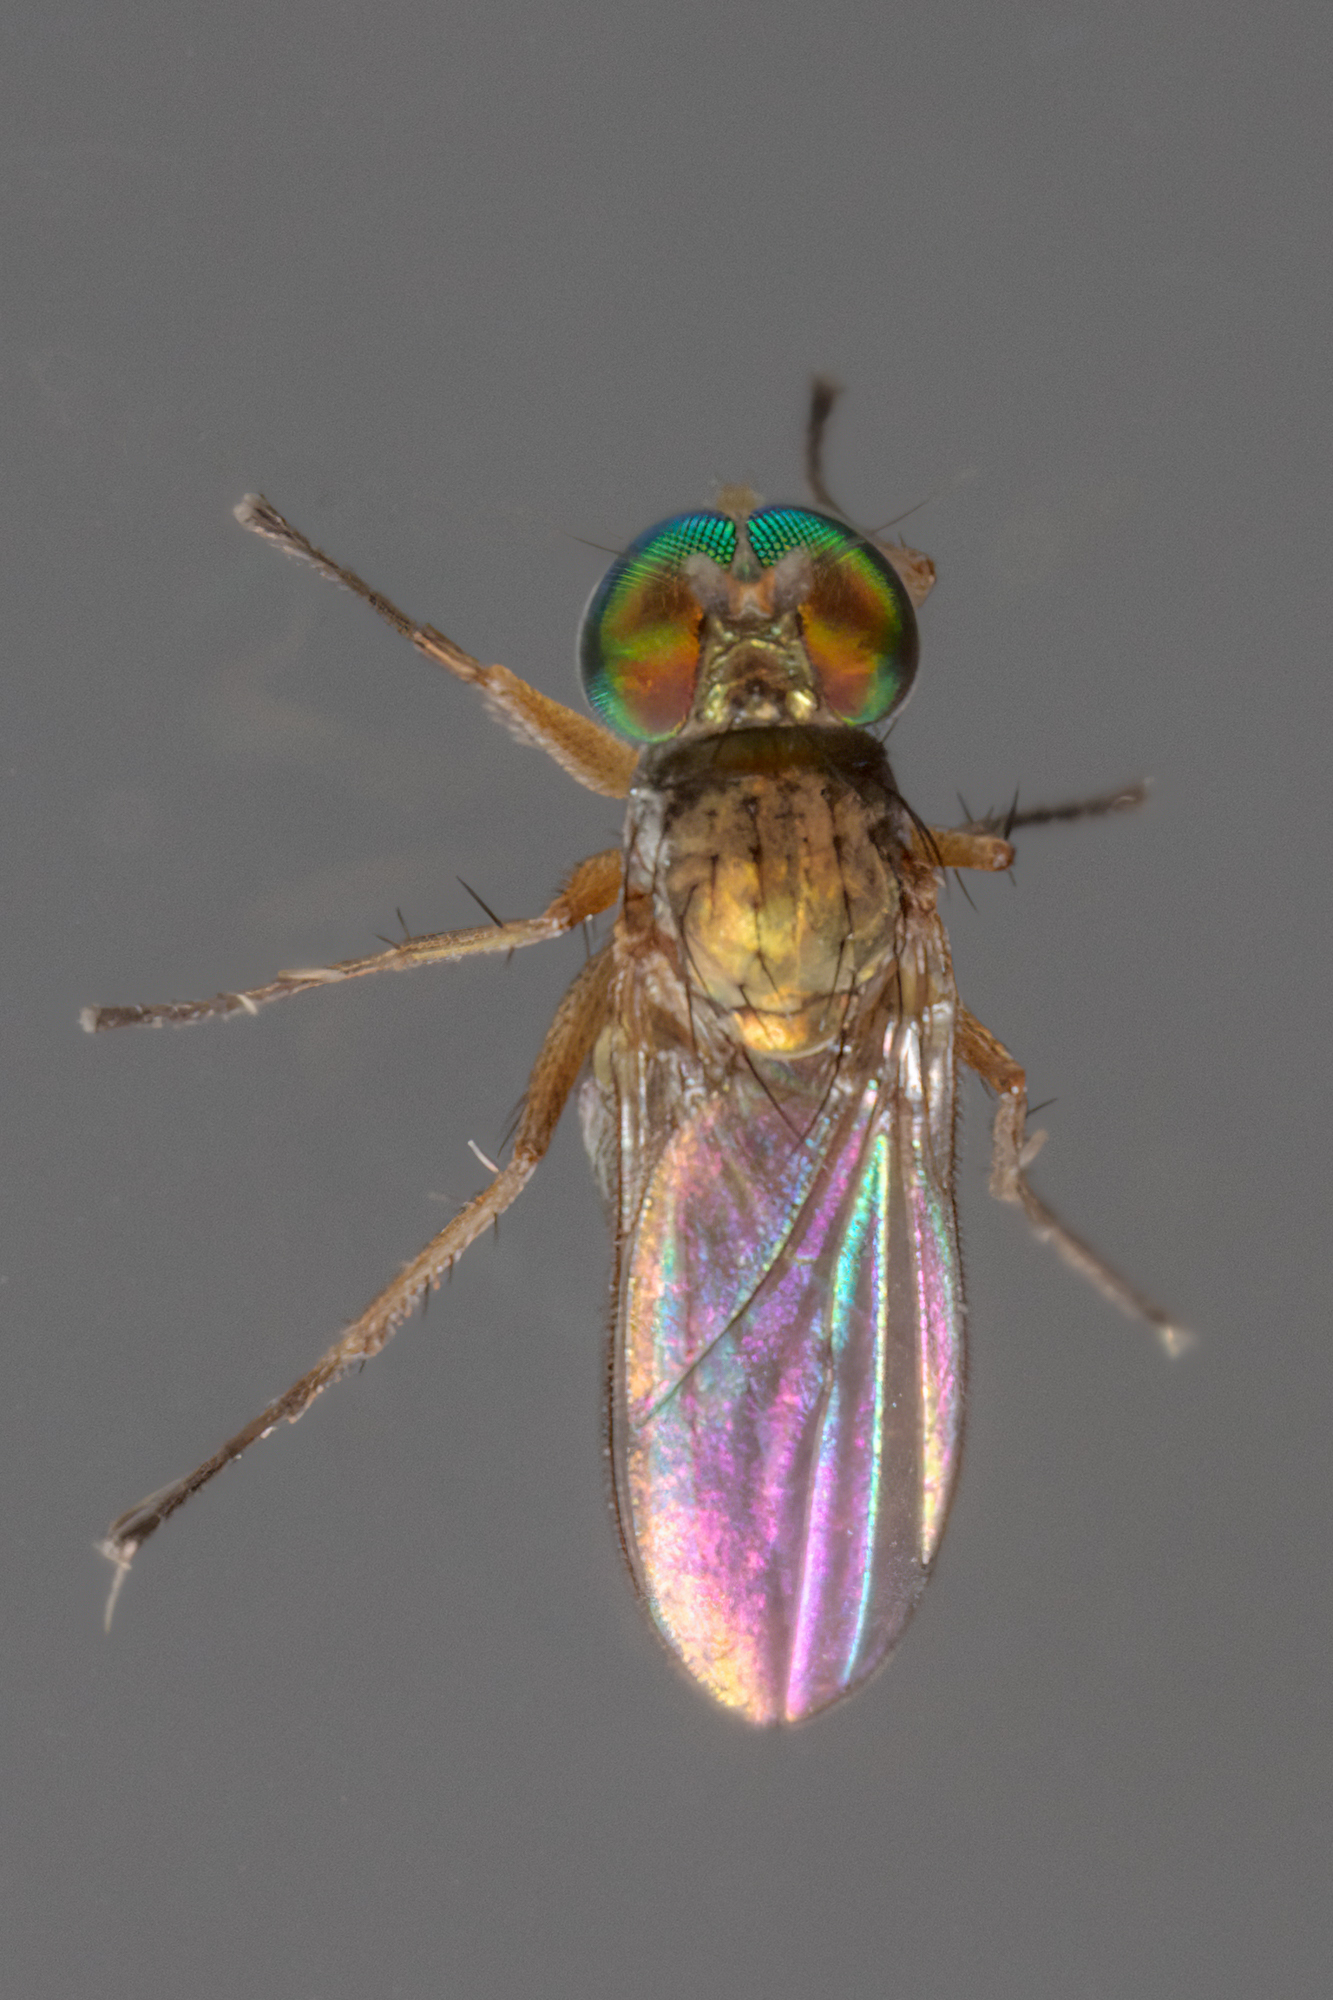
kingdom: Animalia
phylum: Arthropoda
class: Insecta
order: Diptera
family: Dolichopodidae
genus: Chrysotus
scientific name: Chrysotus picticornis
